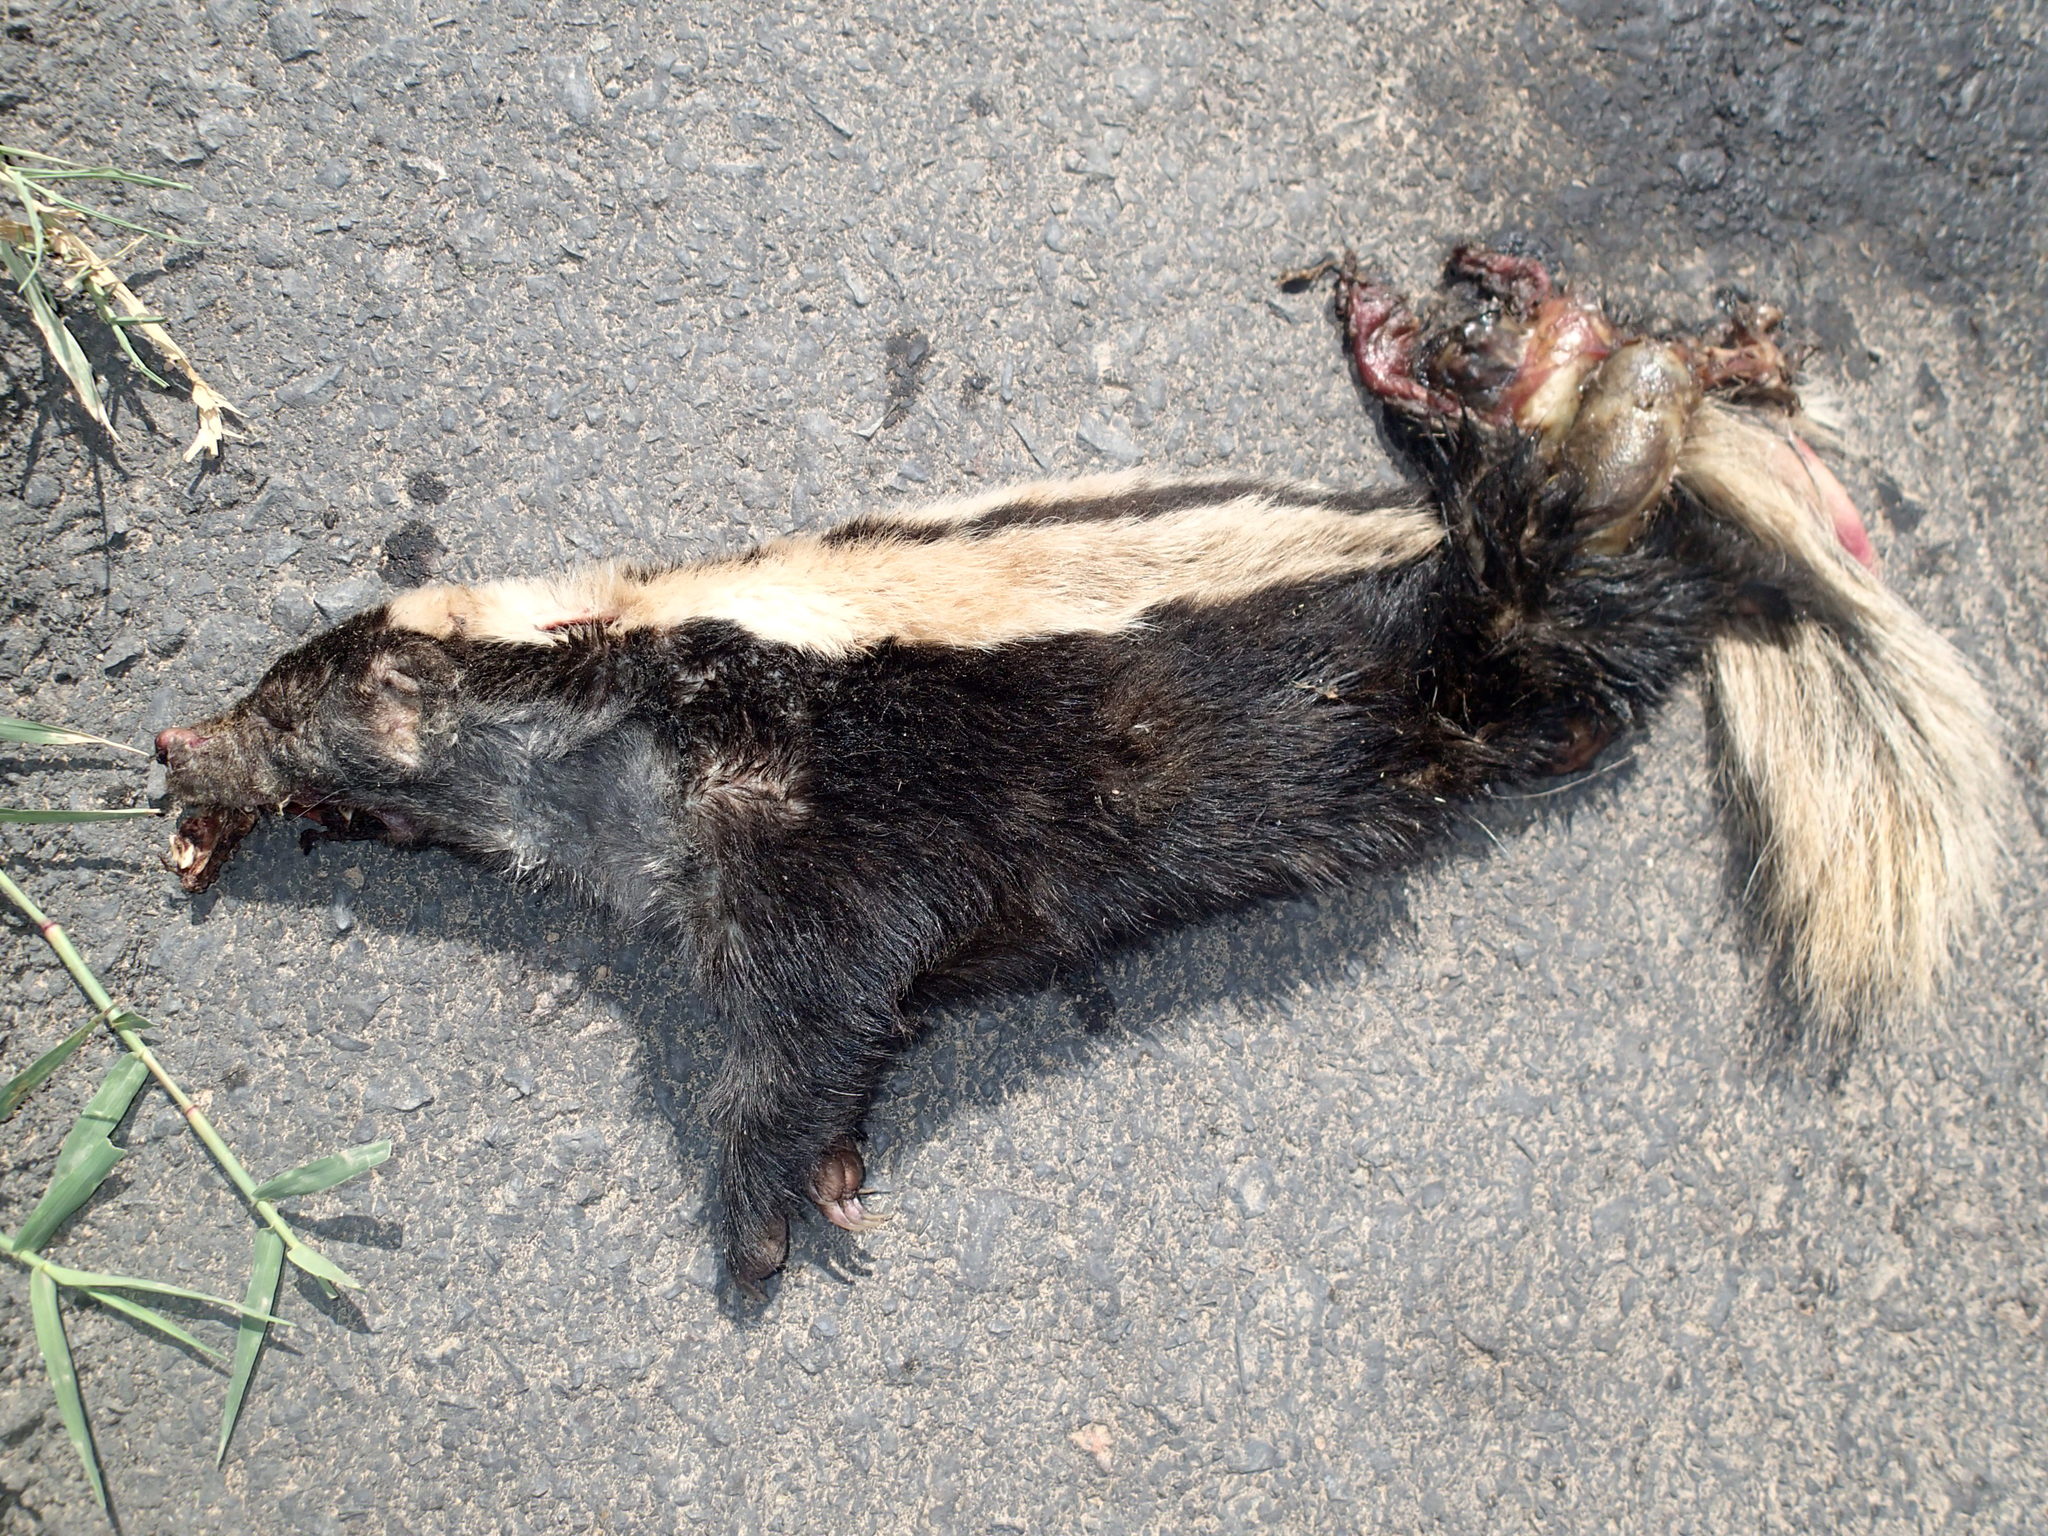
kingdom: Animalia
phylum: Chordata
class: Mammalia
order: Carnivora
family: Mephitidae
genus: Conepatus
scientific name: Conepatus chinga
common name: Molina's hog-nosed skunk
